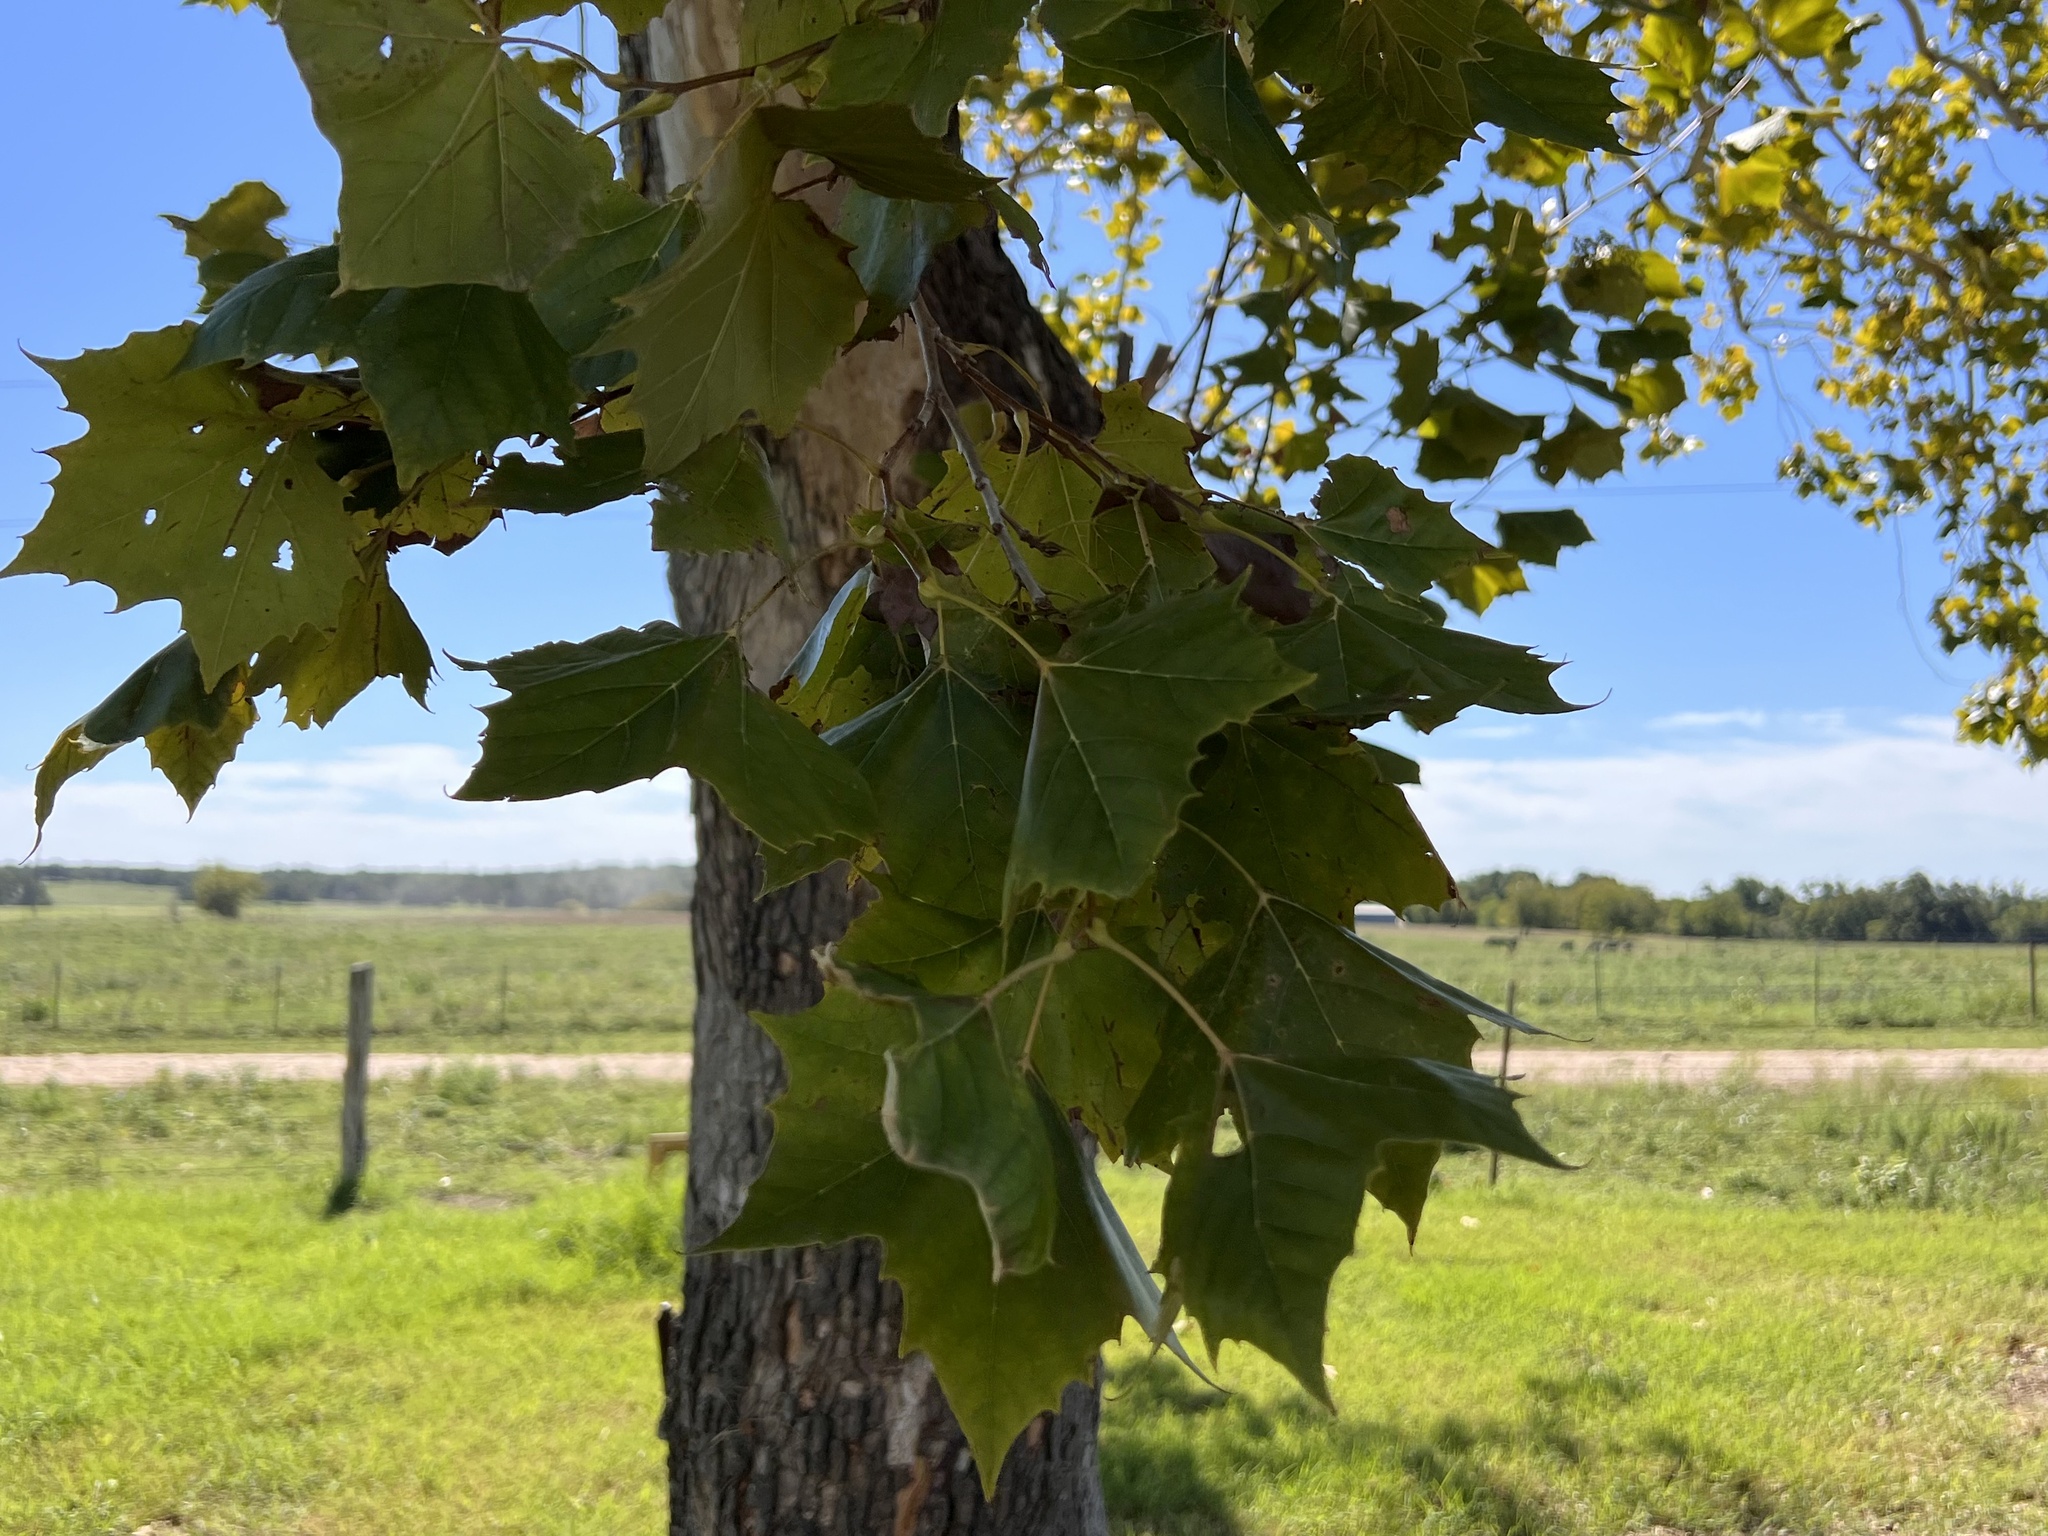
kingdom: Plantae
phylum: Tracheophyta
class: Magnoliopsida
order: Proteales
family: Platanaceae
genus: Platanus
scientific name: Platanus occidentalis
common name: American sycamore
